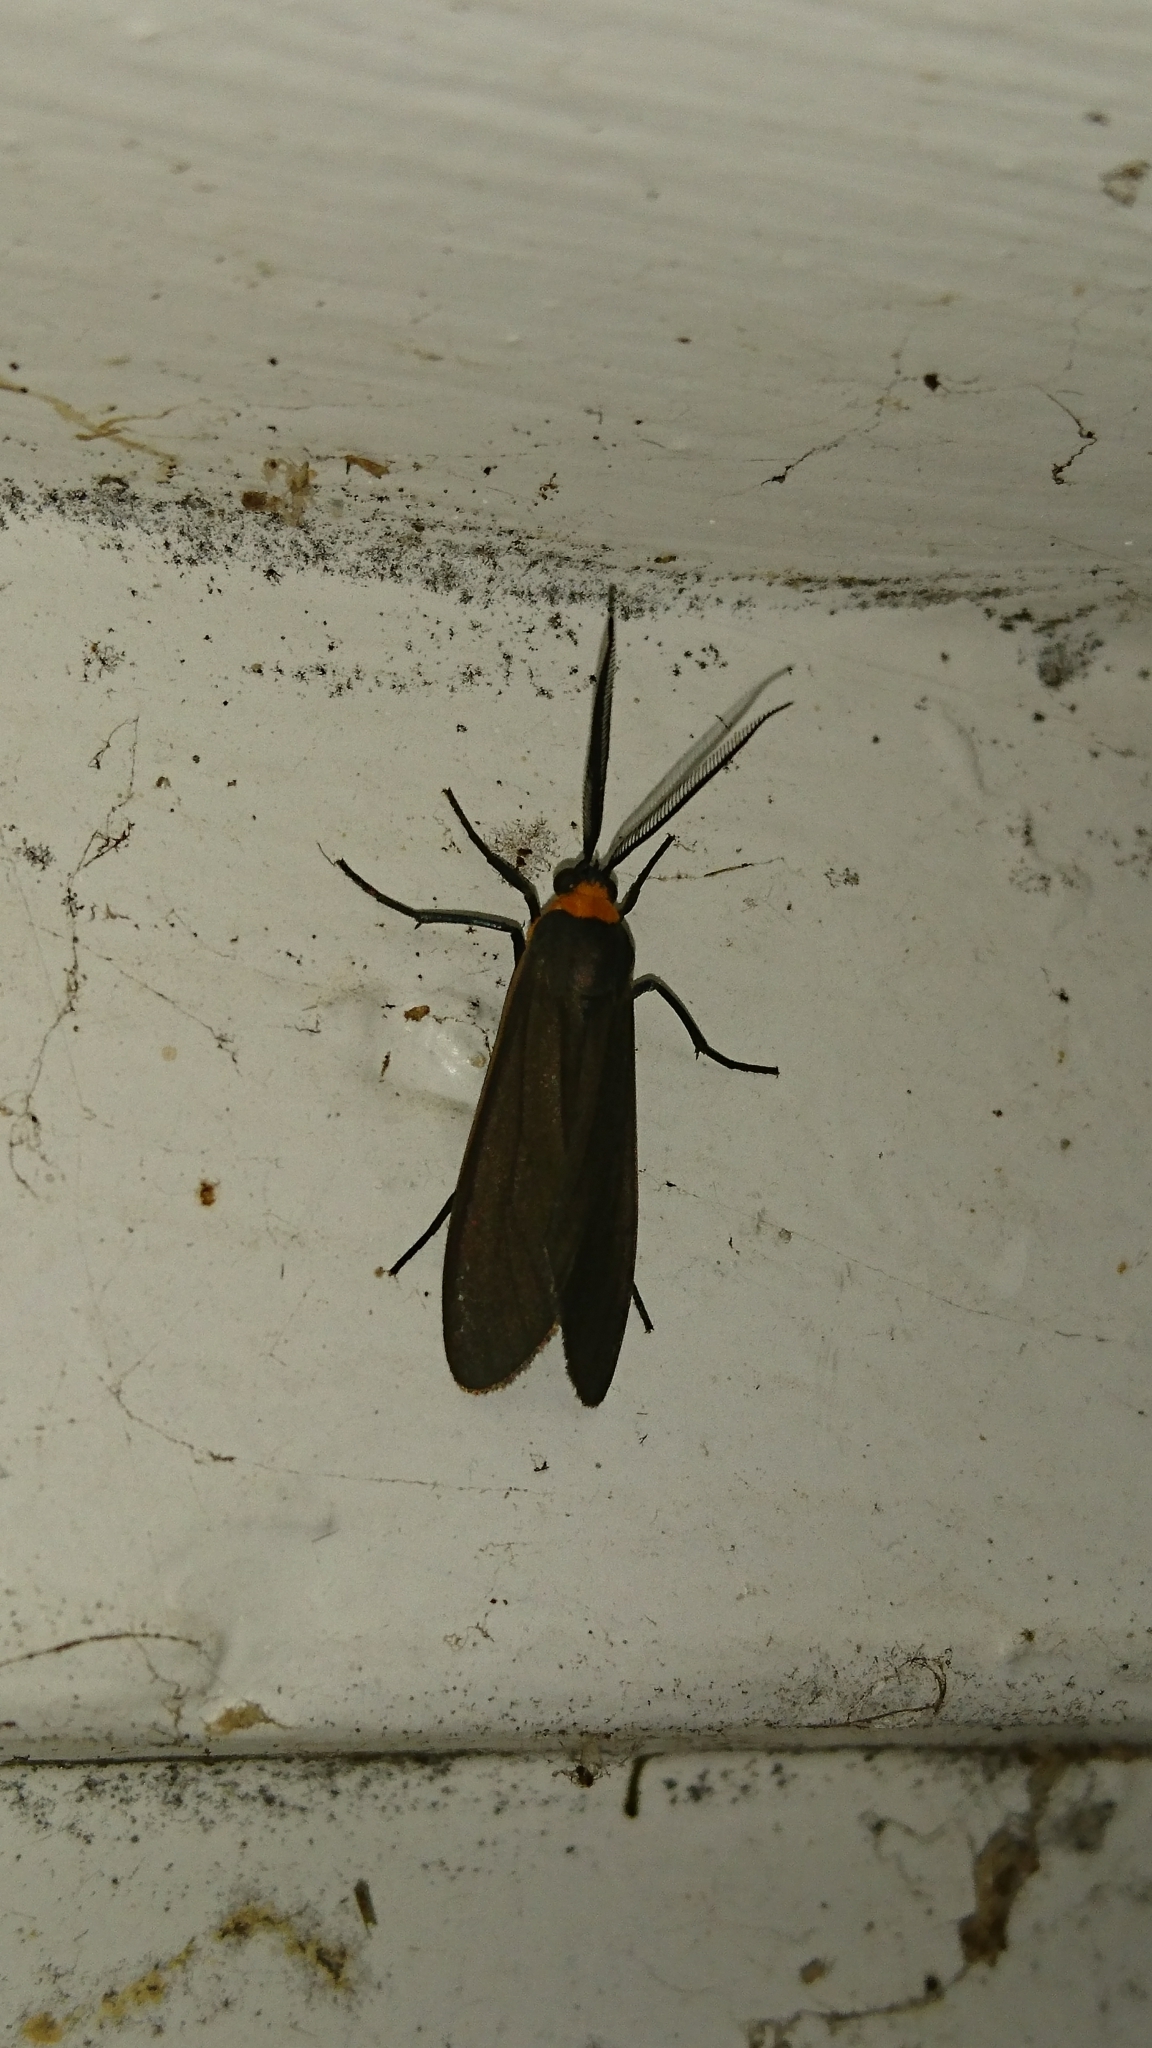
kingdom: Animalia
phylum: Arthropoda
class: Insecta
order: Lepidoptera
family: Erebidae
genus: Cisseps
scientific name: Cisseps fulvicollis
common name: Yellow-collared scape moth
